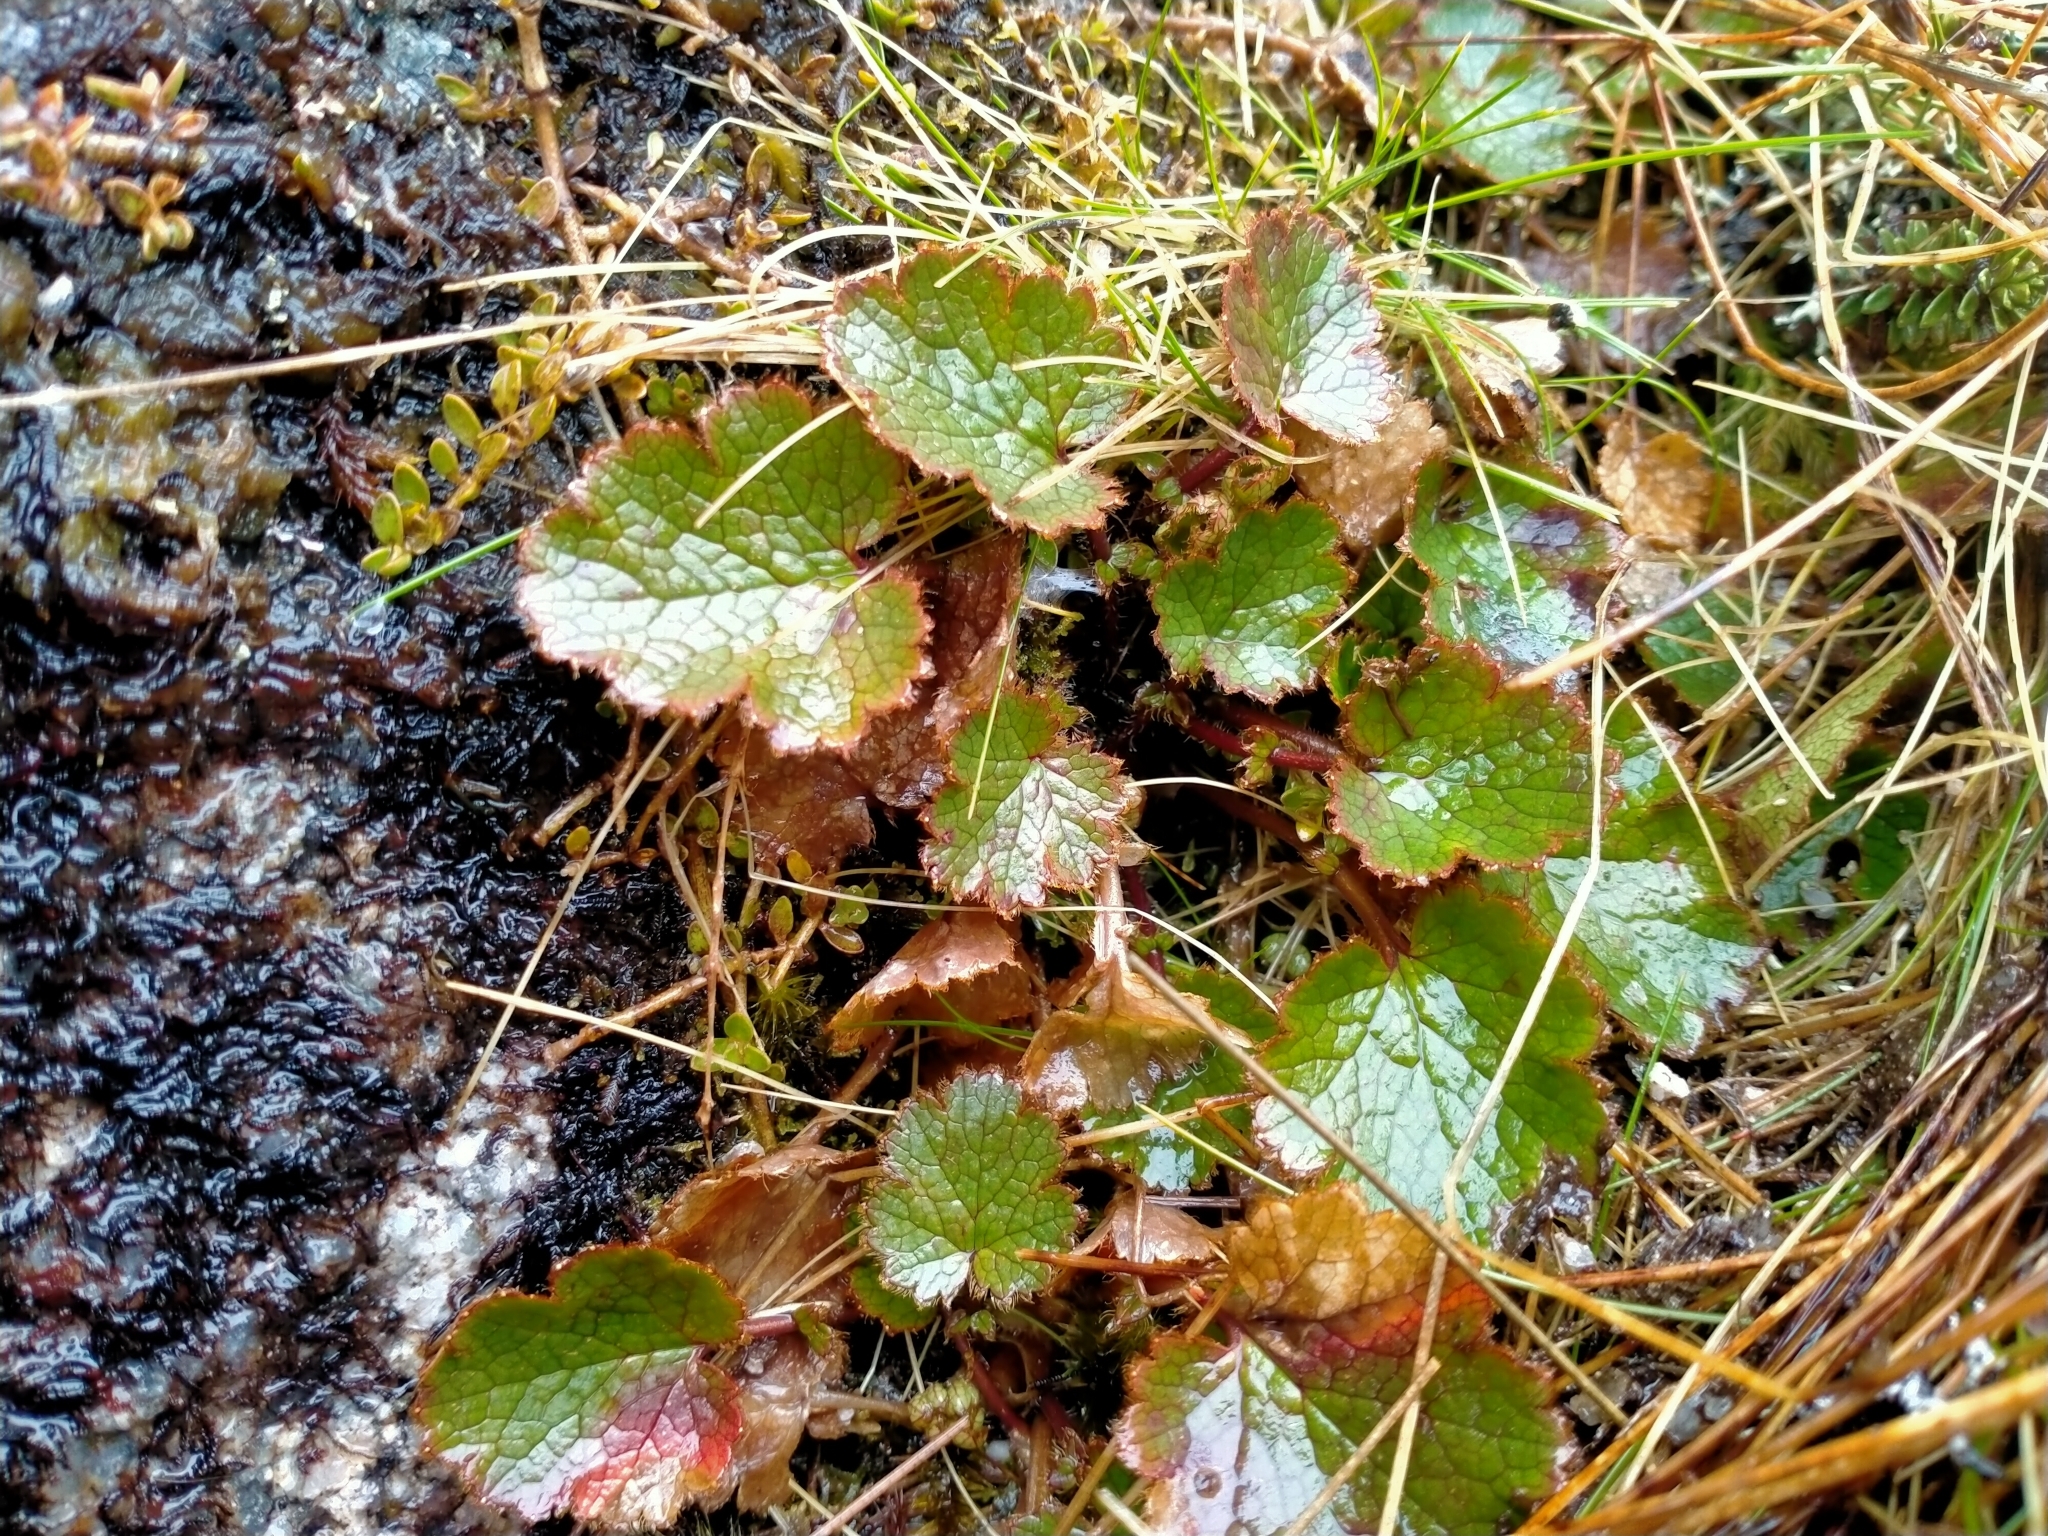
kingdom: Plantae
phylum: Tracheophyta
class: Magnoliopsida
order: Rosales
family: Rosaceae
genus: Geum
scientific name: Geum uniflorum
